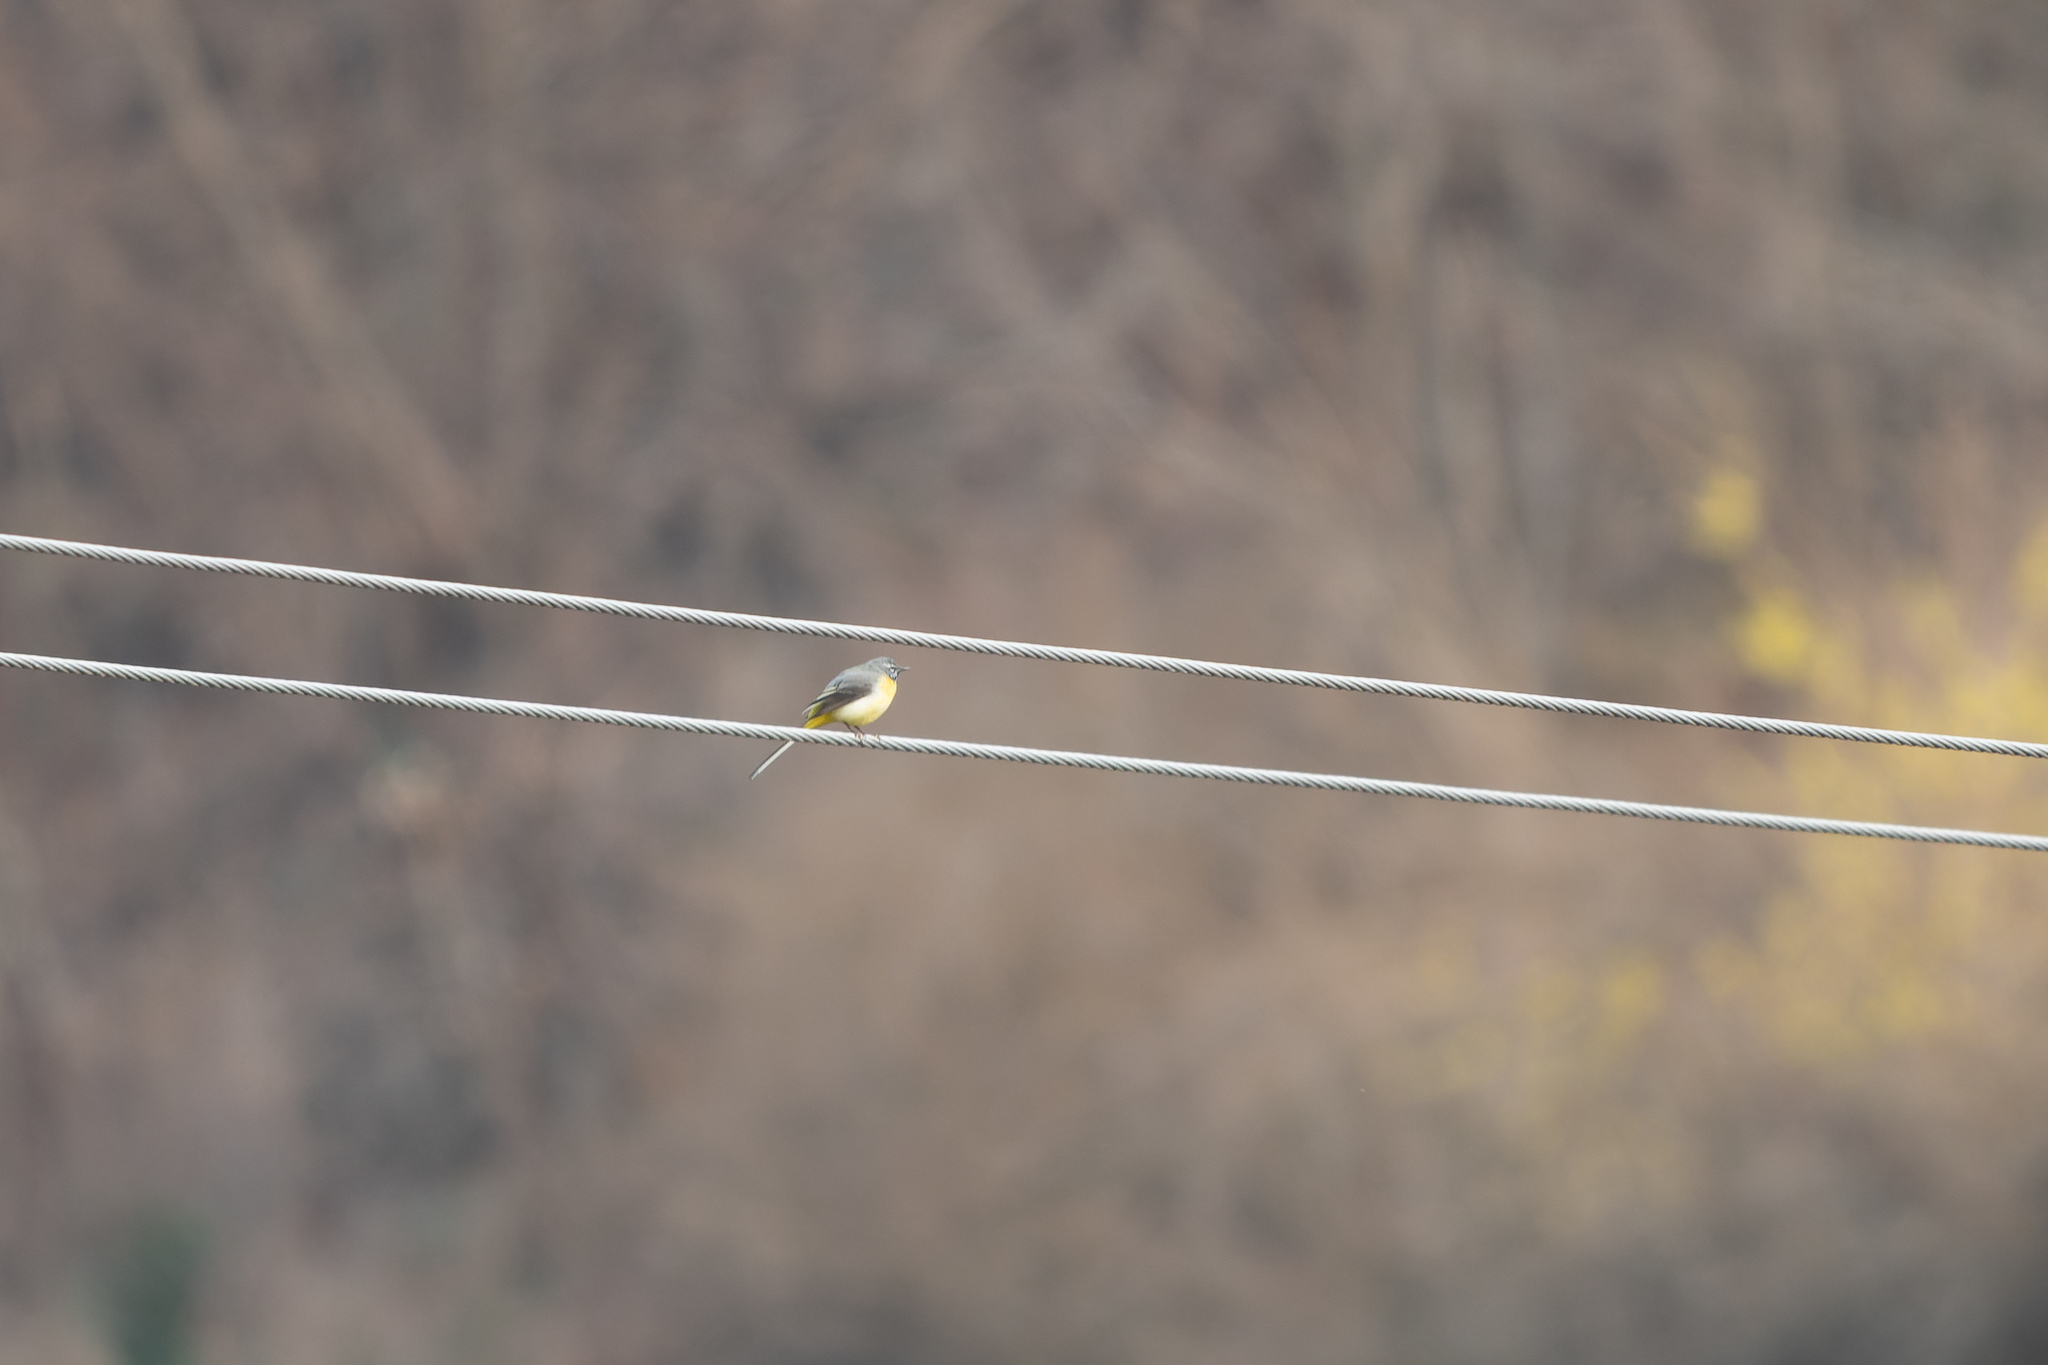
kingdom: Animalia
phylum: Chordata
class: Aves
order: Passeriformes
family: Motacillidae
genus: Motacilla
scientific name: Motacilla cinerea
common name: Grey wagtail
